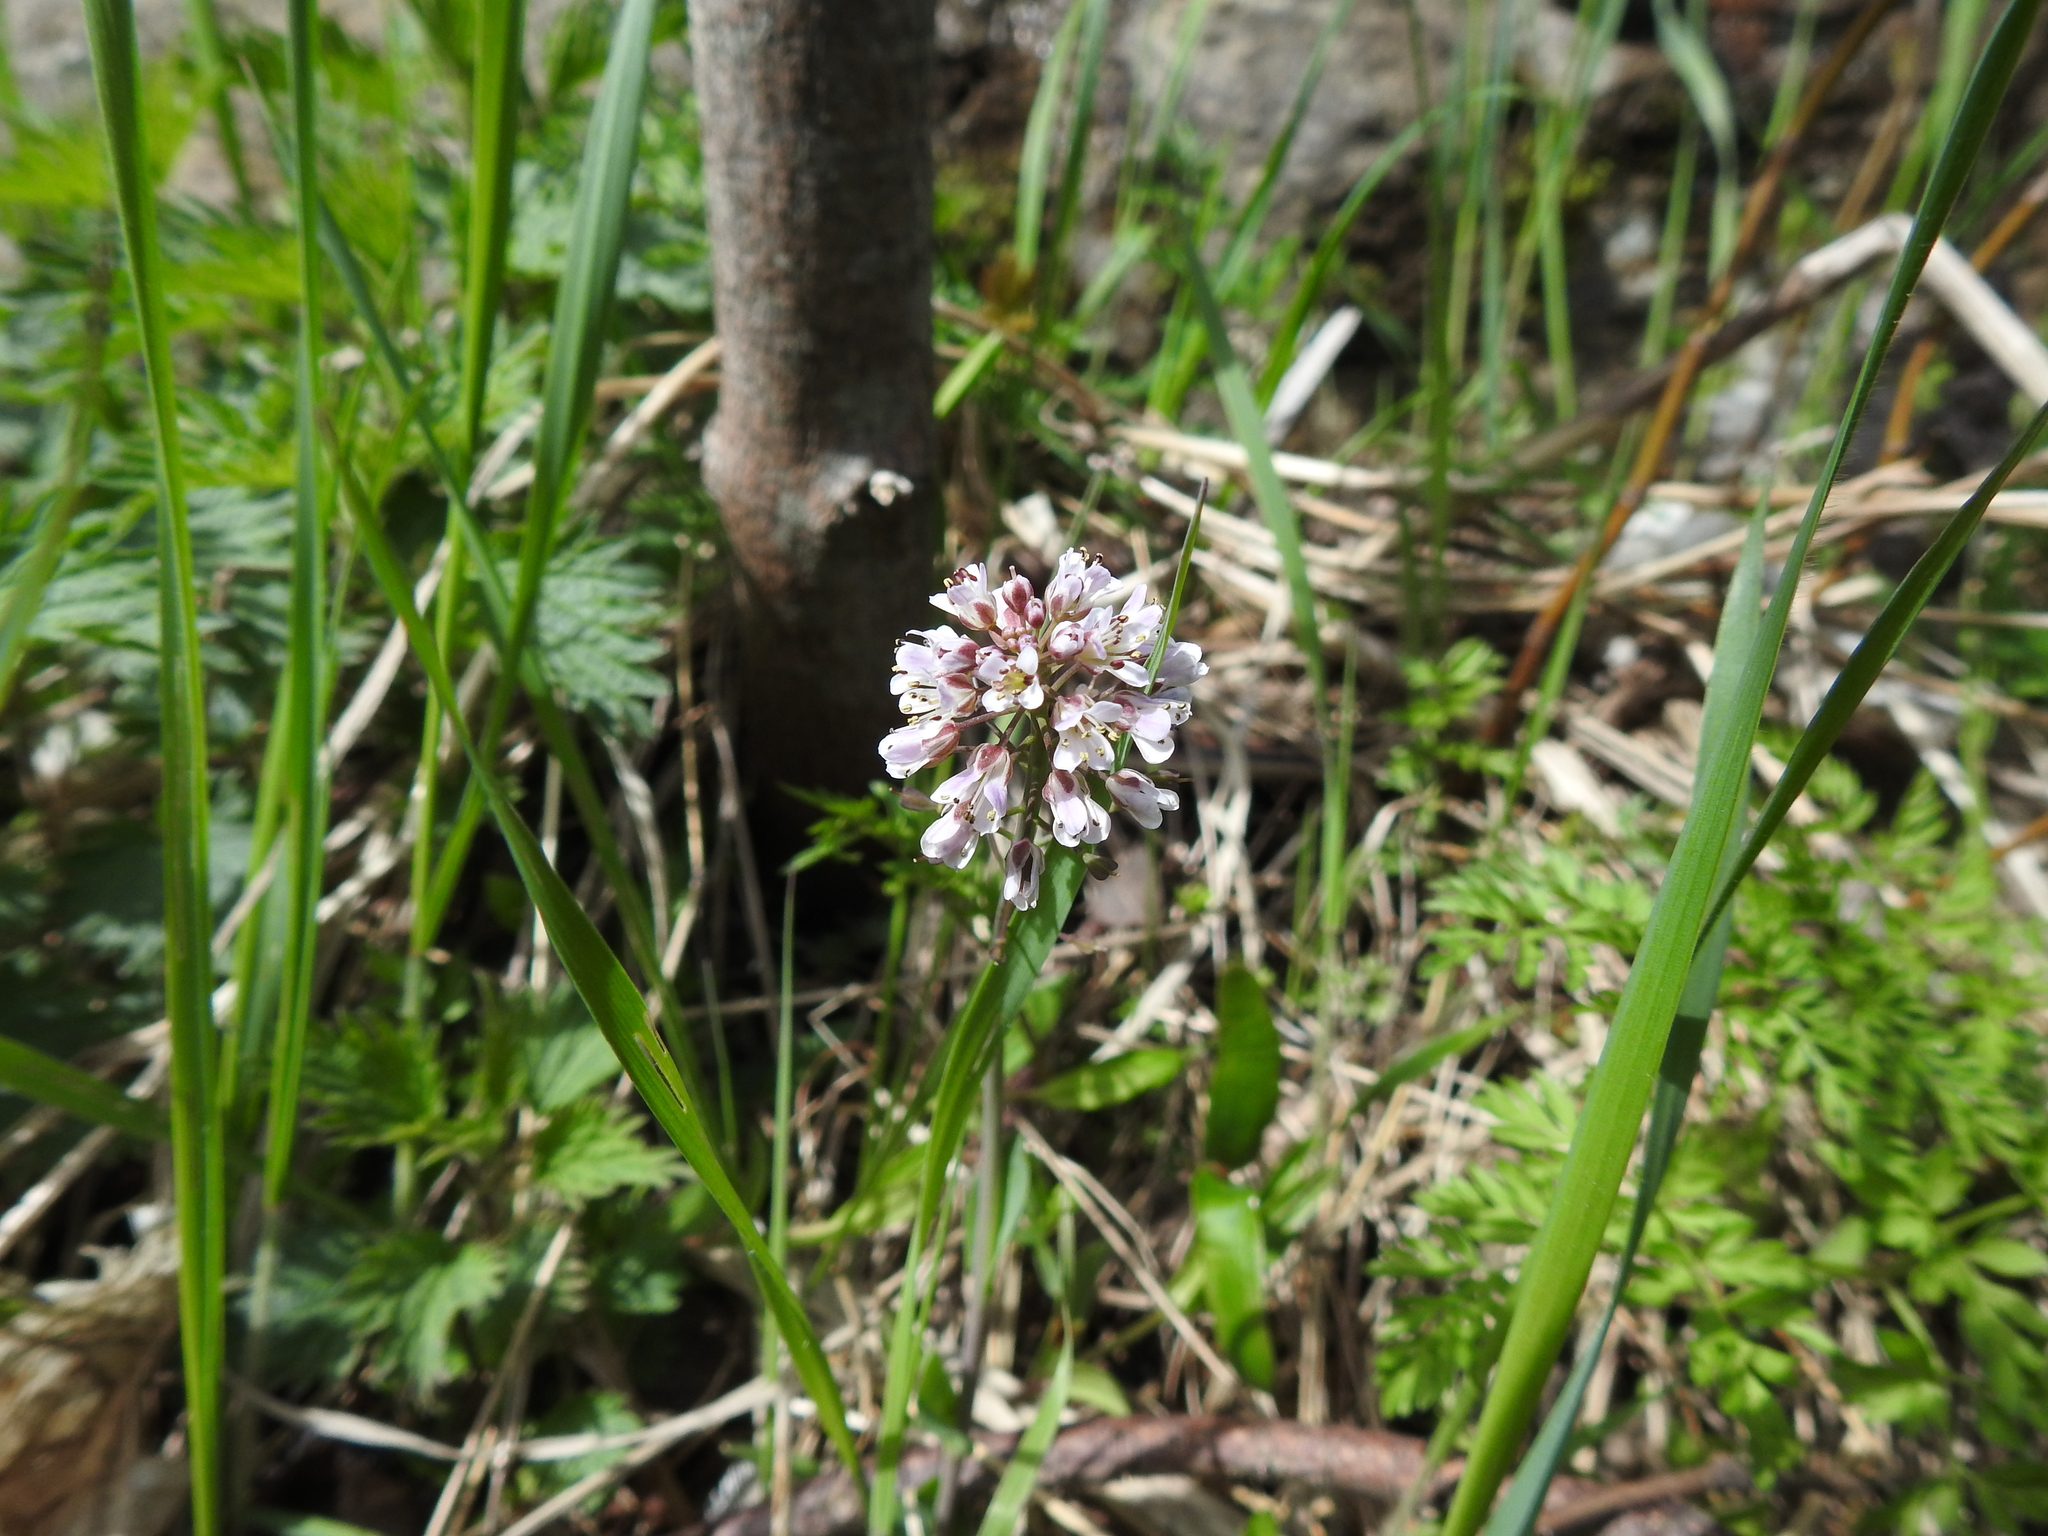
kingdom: Plantae
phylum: Tracheophyta
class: Magnoliopsida
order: Brassicales
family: Brassicaceae
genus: Noccaea
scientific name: Noccaea caerulescens
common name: Alpine pennycress
